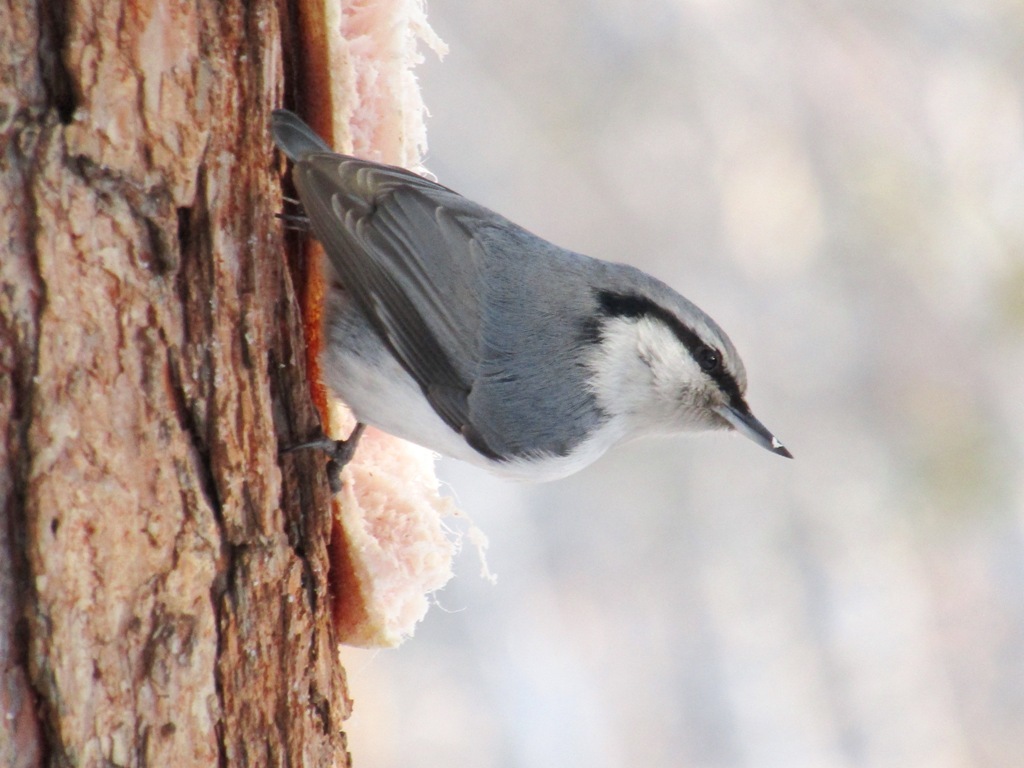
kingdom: Animalia
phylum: Chordata
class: Aves
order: Passeriformes
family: Sittidae
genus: Sitta
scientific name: Sitta europaea
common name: Eurasian nuthatch
